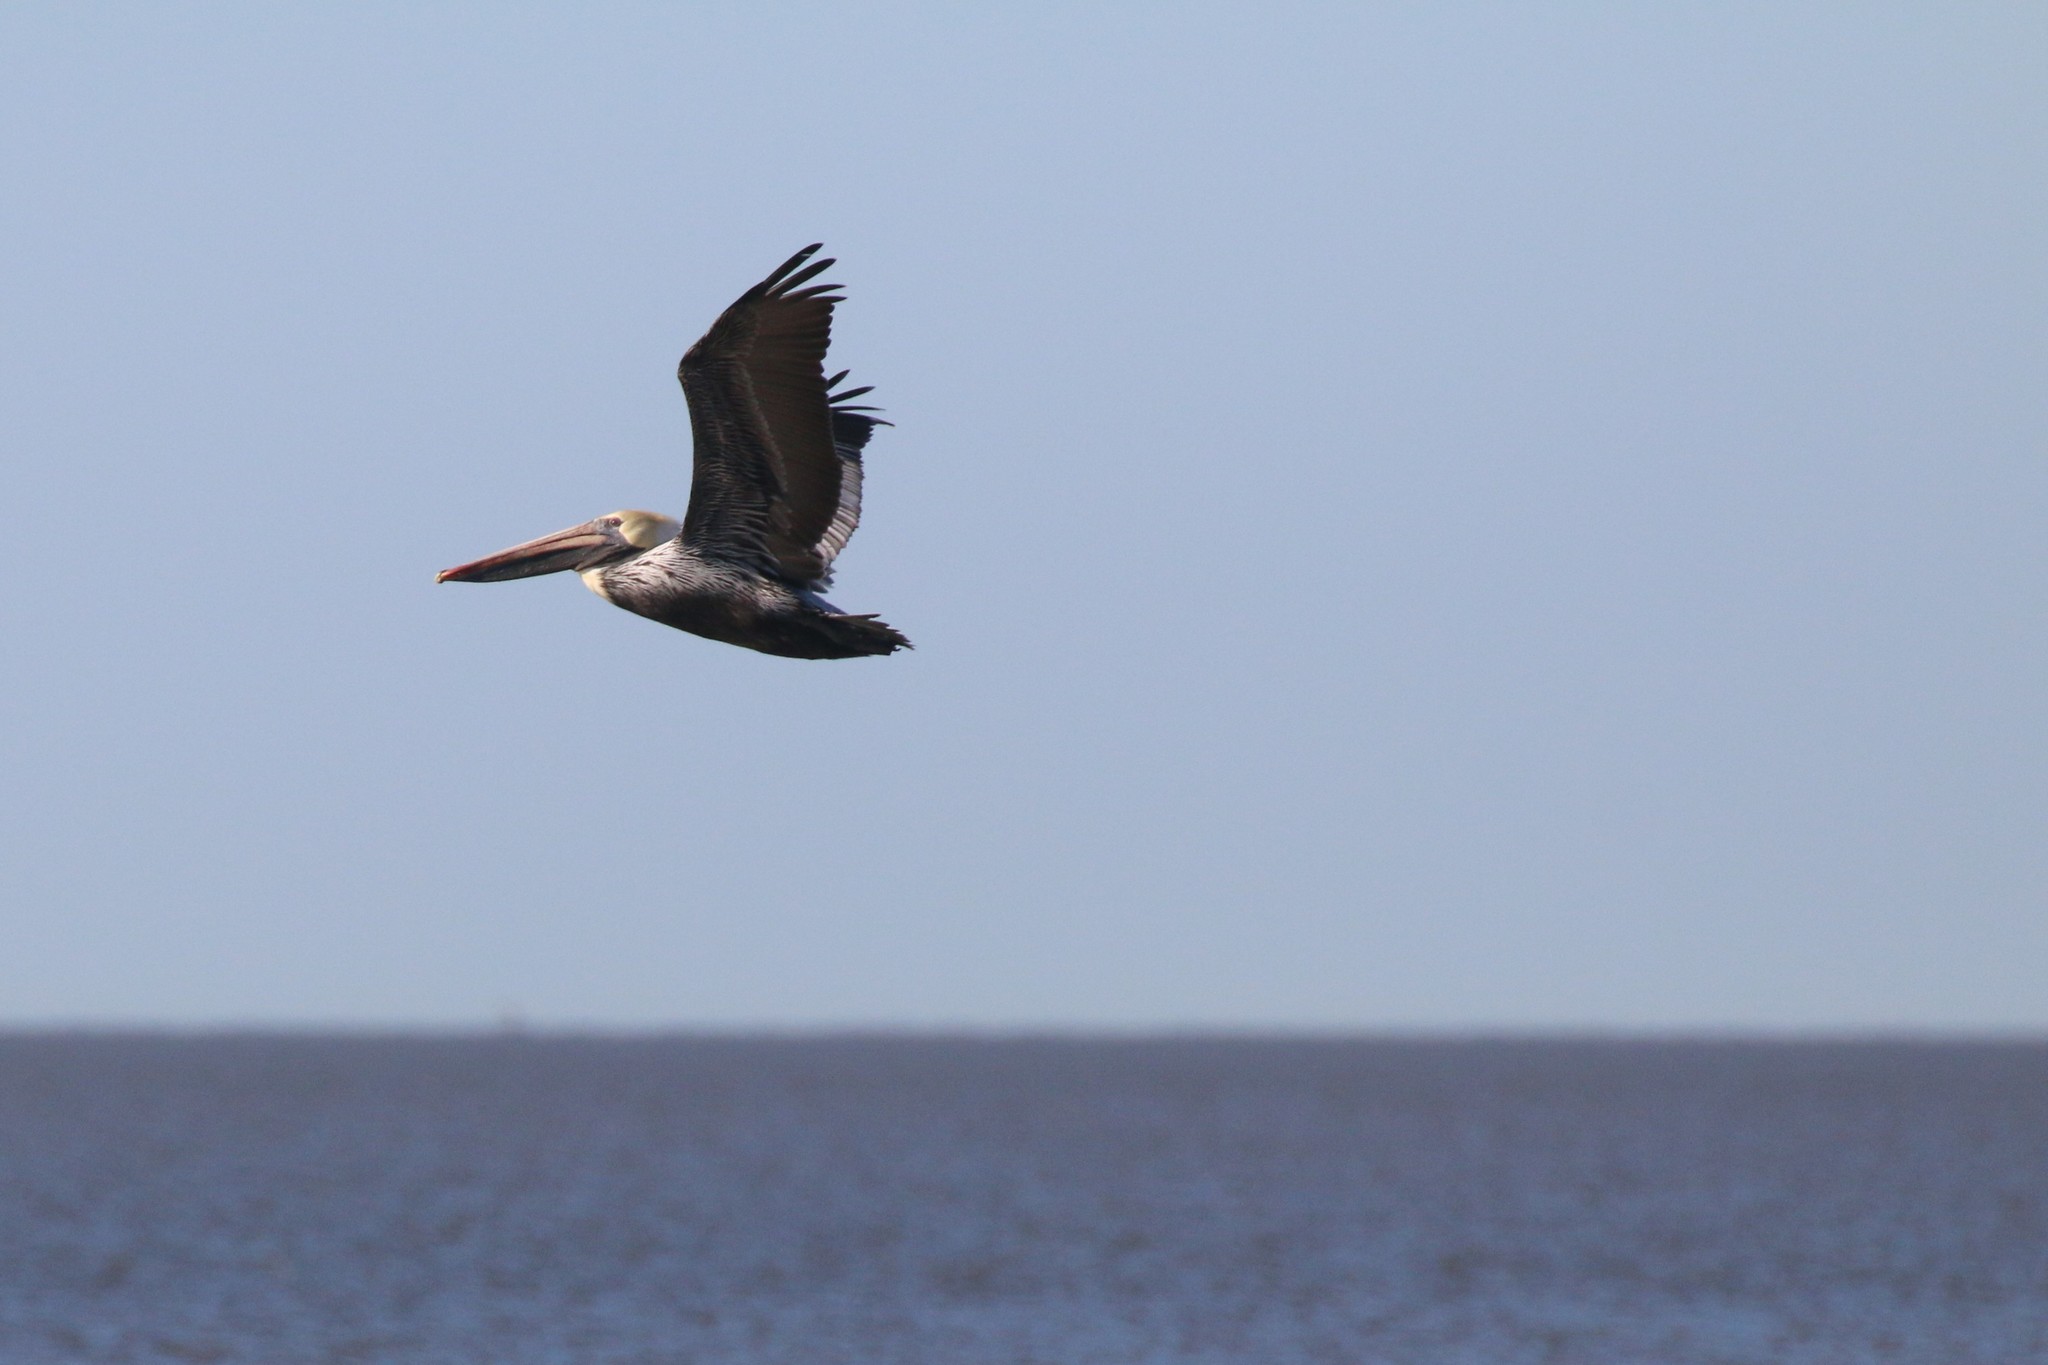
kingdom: Animalia
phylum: Chordata
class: Aves
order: Pelecaniformes
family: Pelecanidae
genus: Pelecanus
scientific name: Pelecanus occidentalis
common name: Brown pelican
